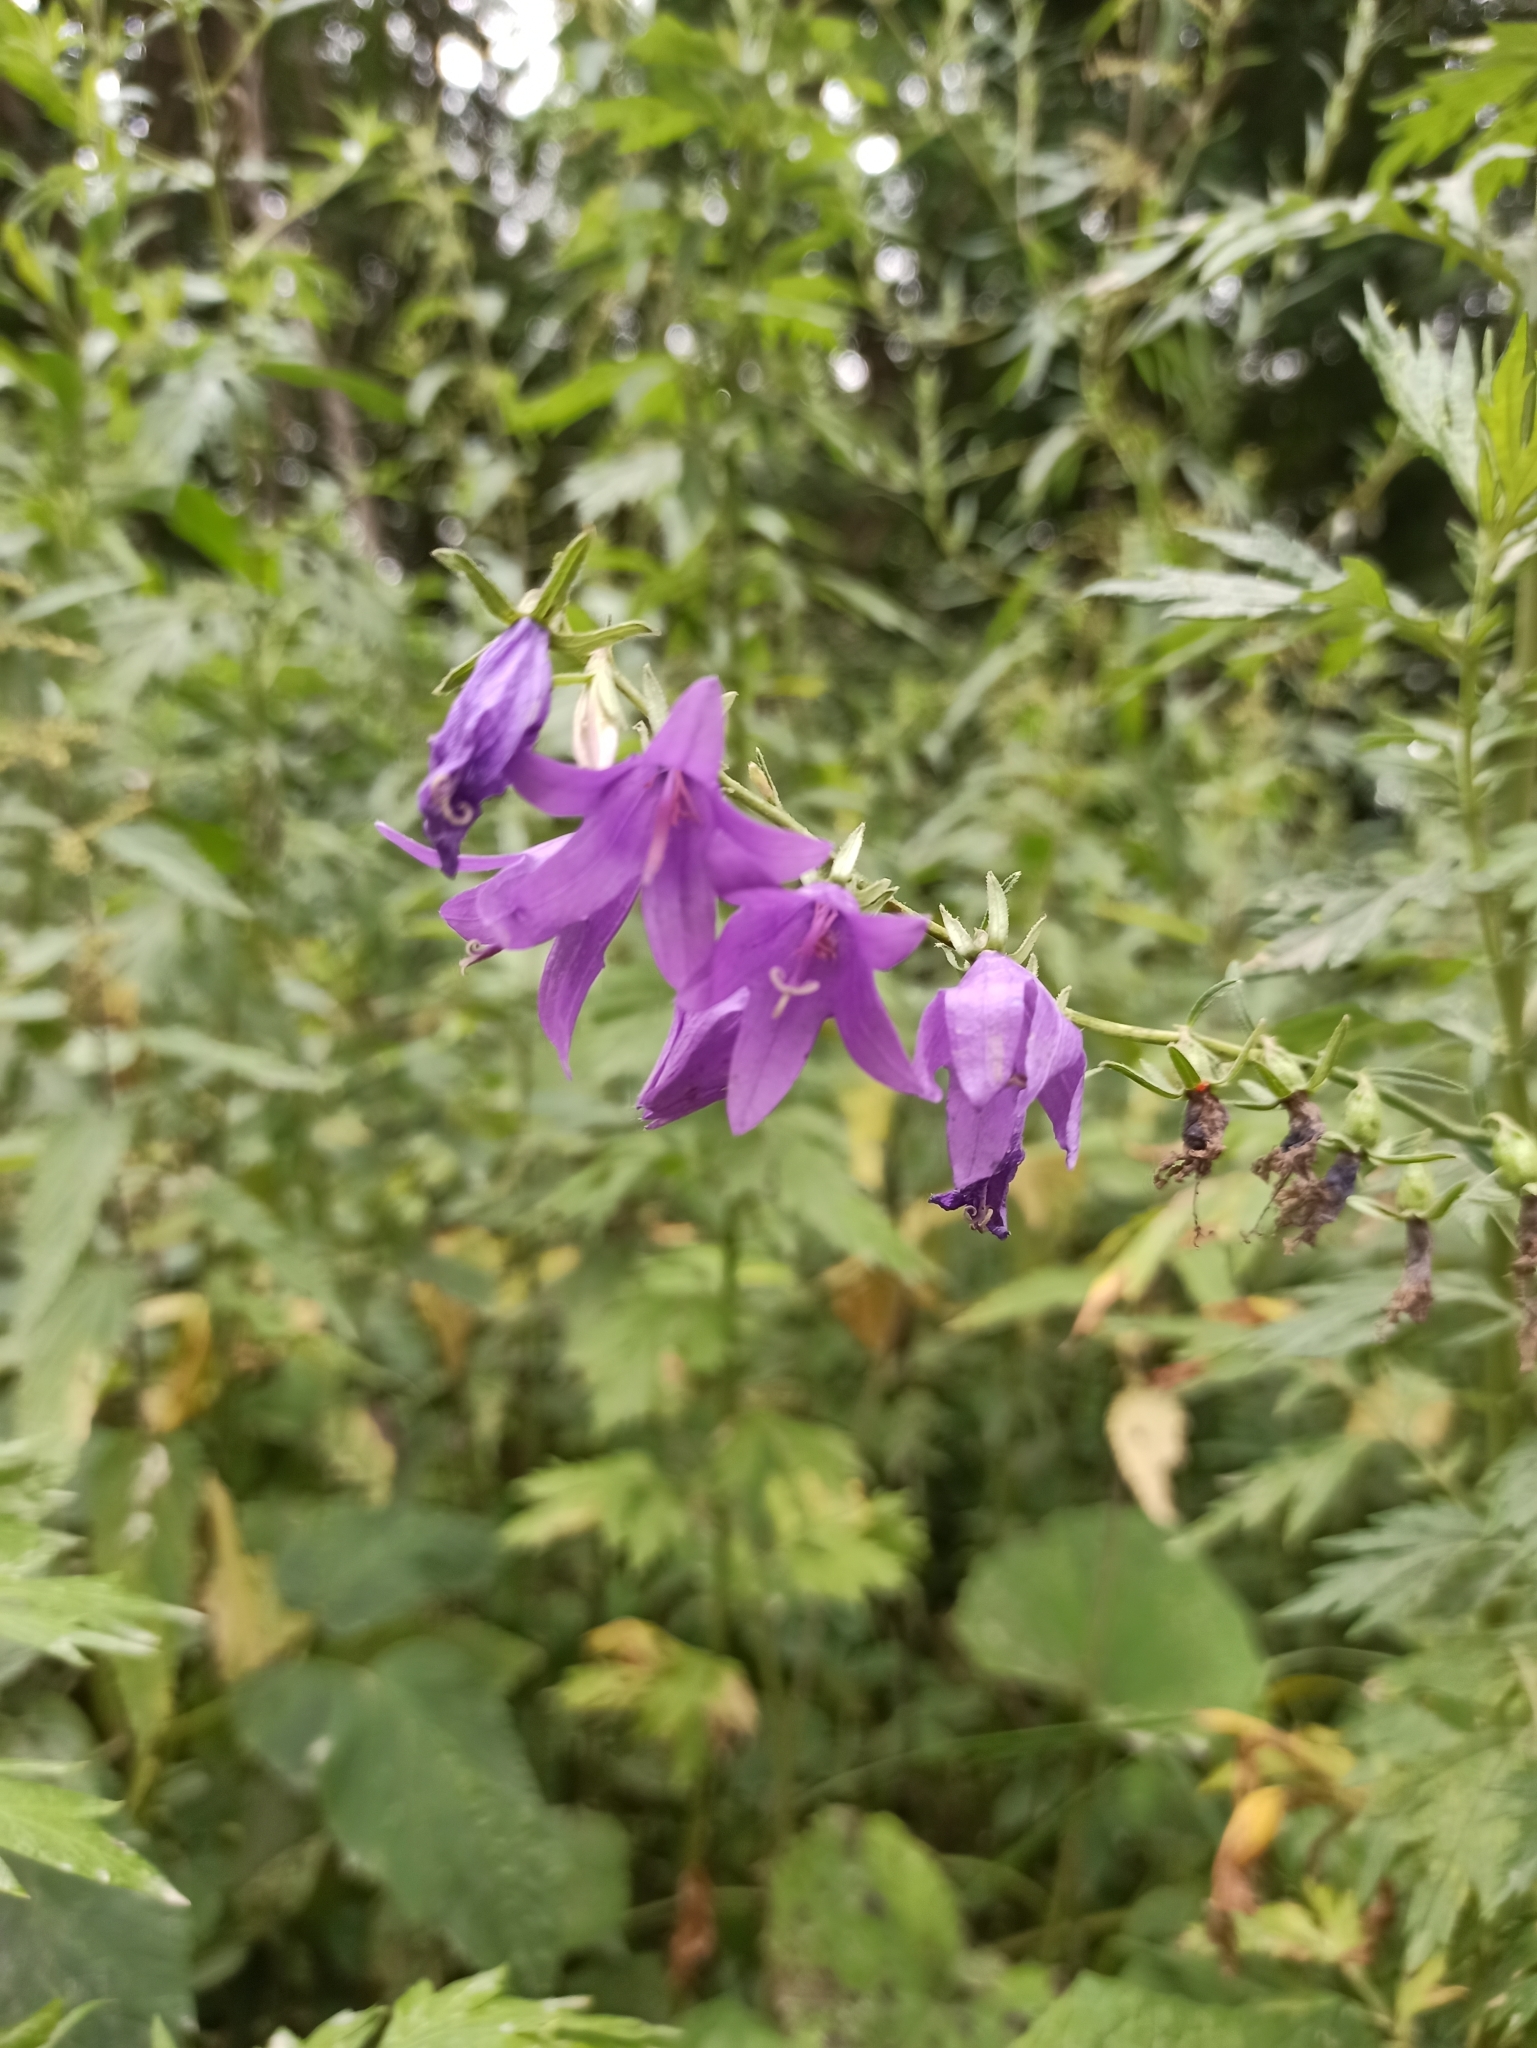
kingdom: Plantae
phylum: Tracheophyta
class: Magnoliopsida
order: Asterales
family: Campanulaceae
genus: Campanula
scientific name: Campanula rapunculoides
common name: Creeping bellflower
